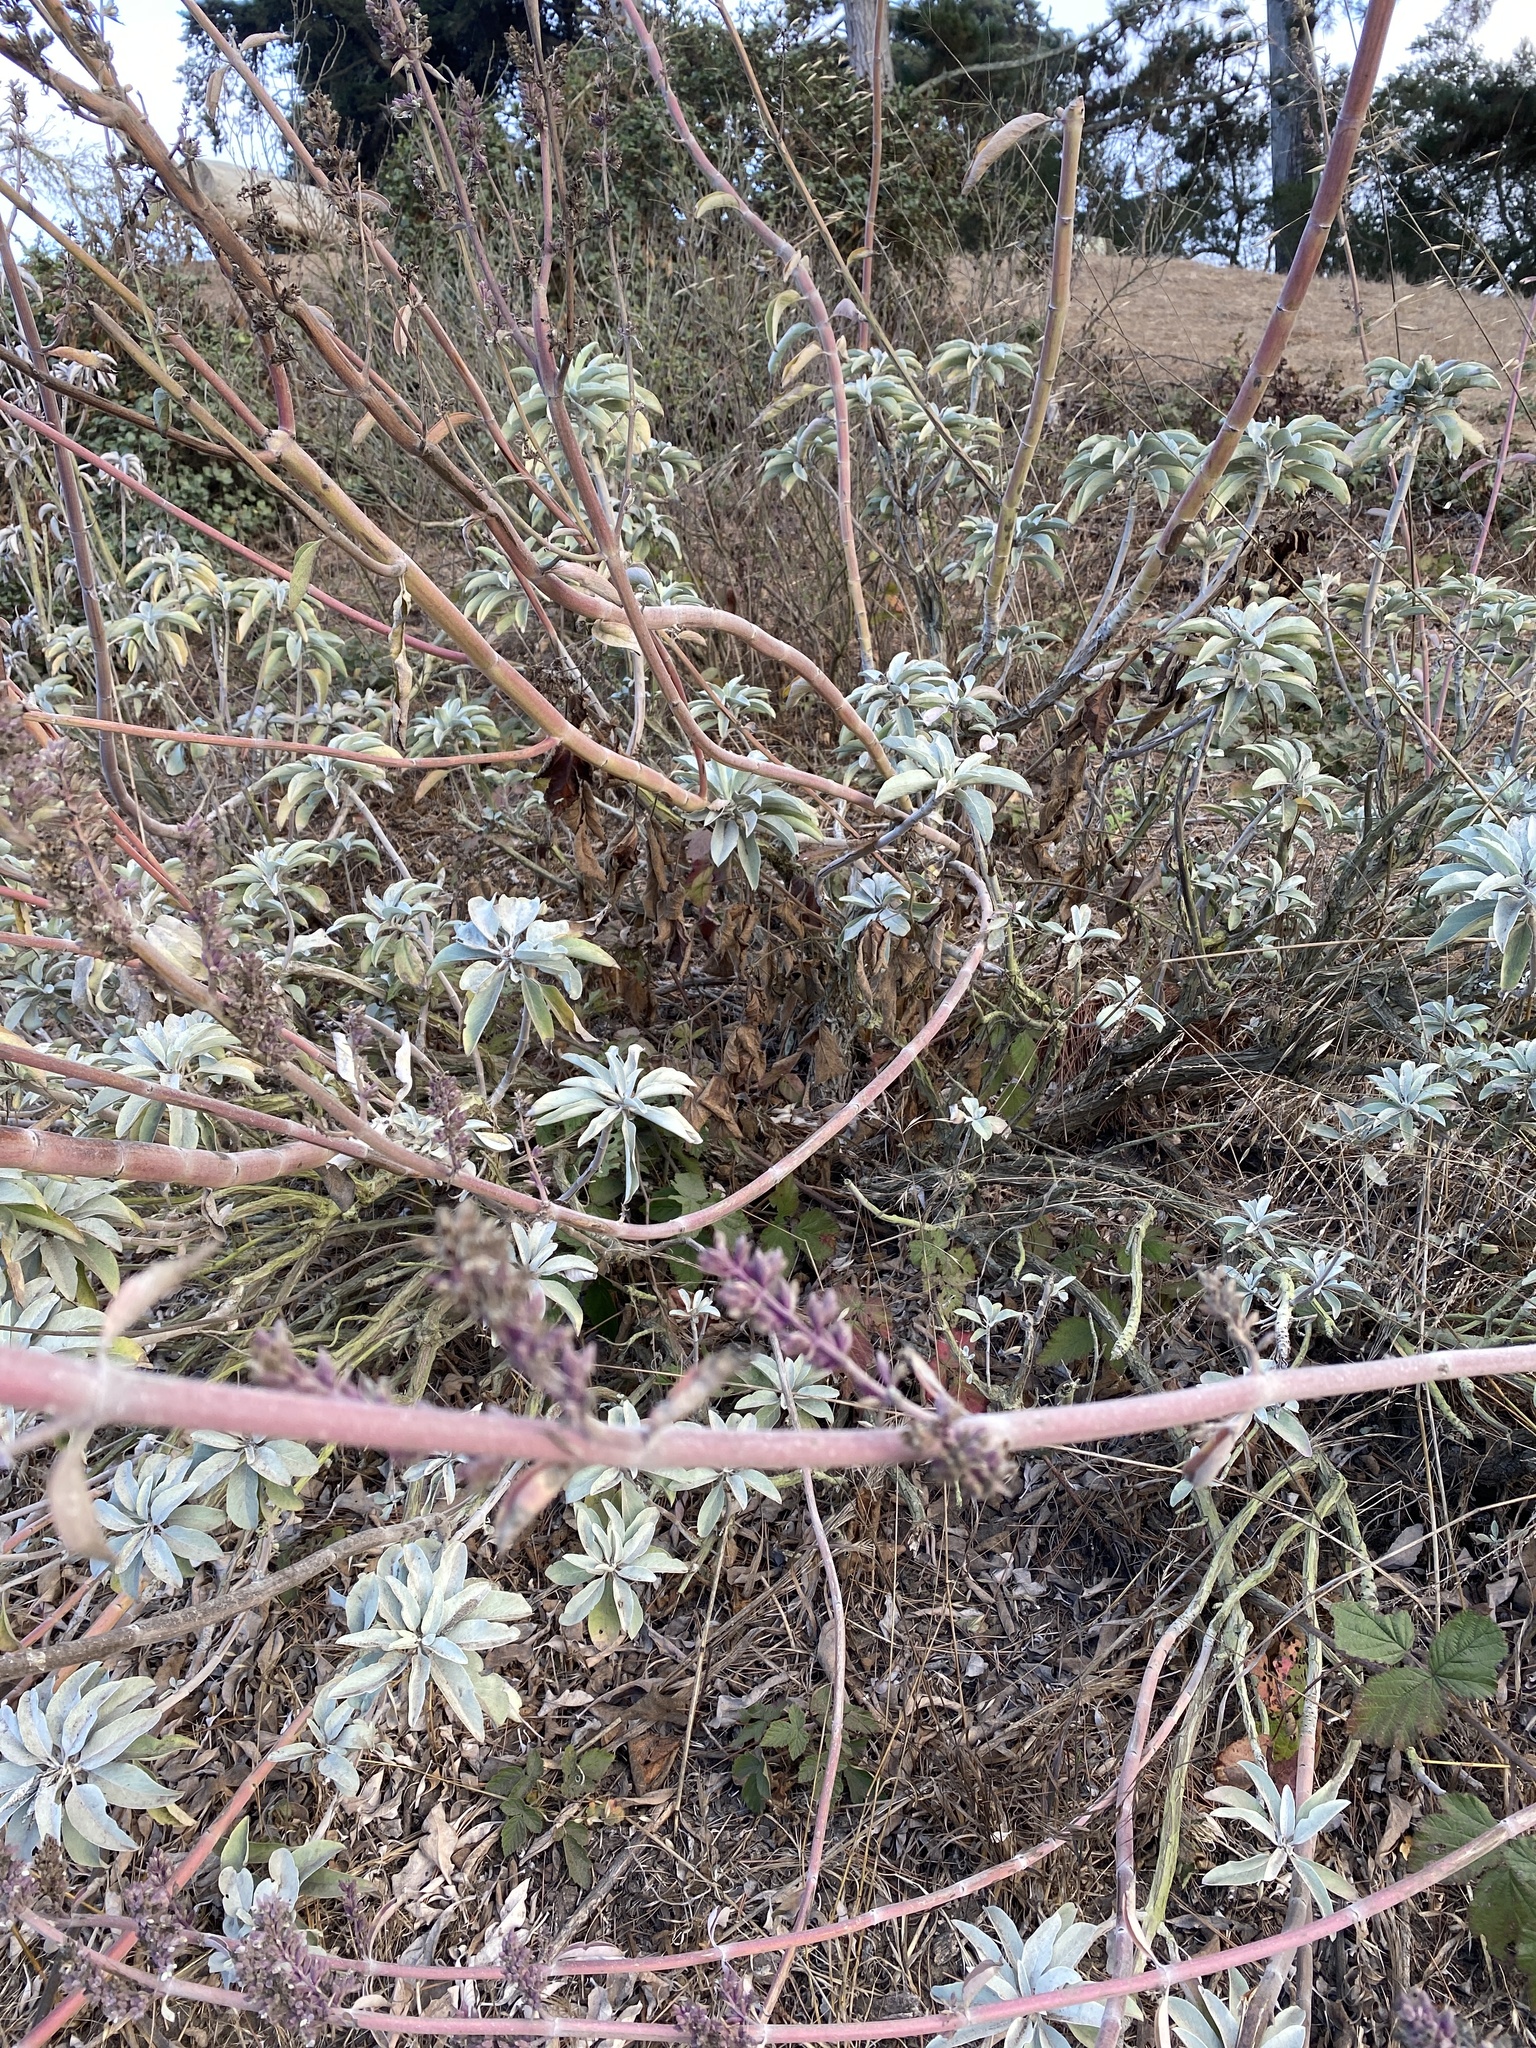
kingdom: Plantae
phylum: Tracheophyta
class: Magnoliopsida
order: Boraginales
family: Boraginaceae
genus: Echium
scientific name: Echium candicans
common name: Pride of madeira
